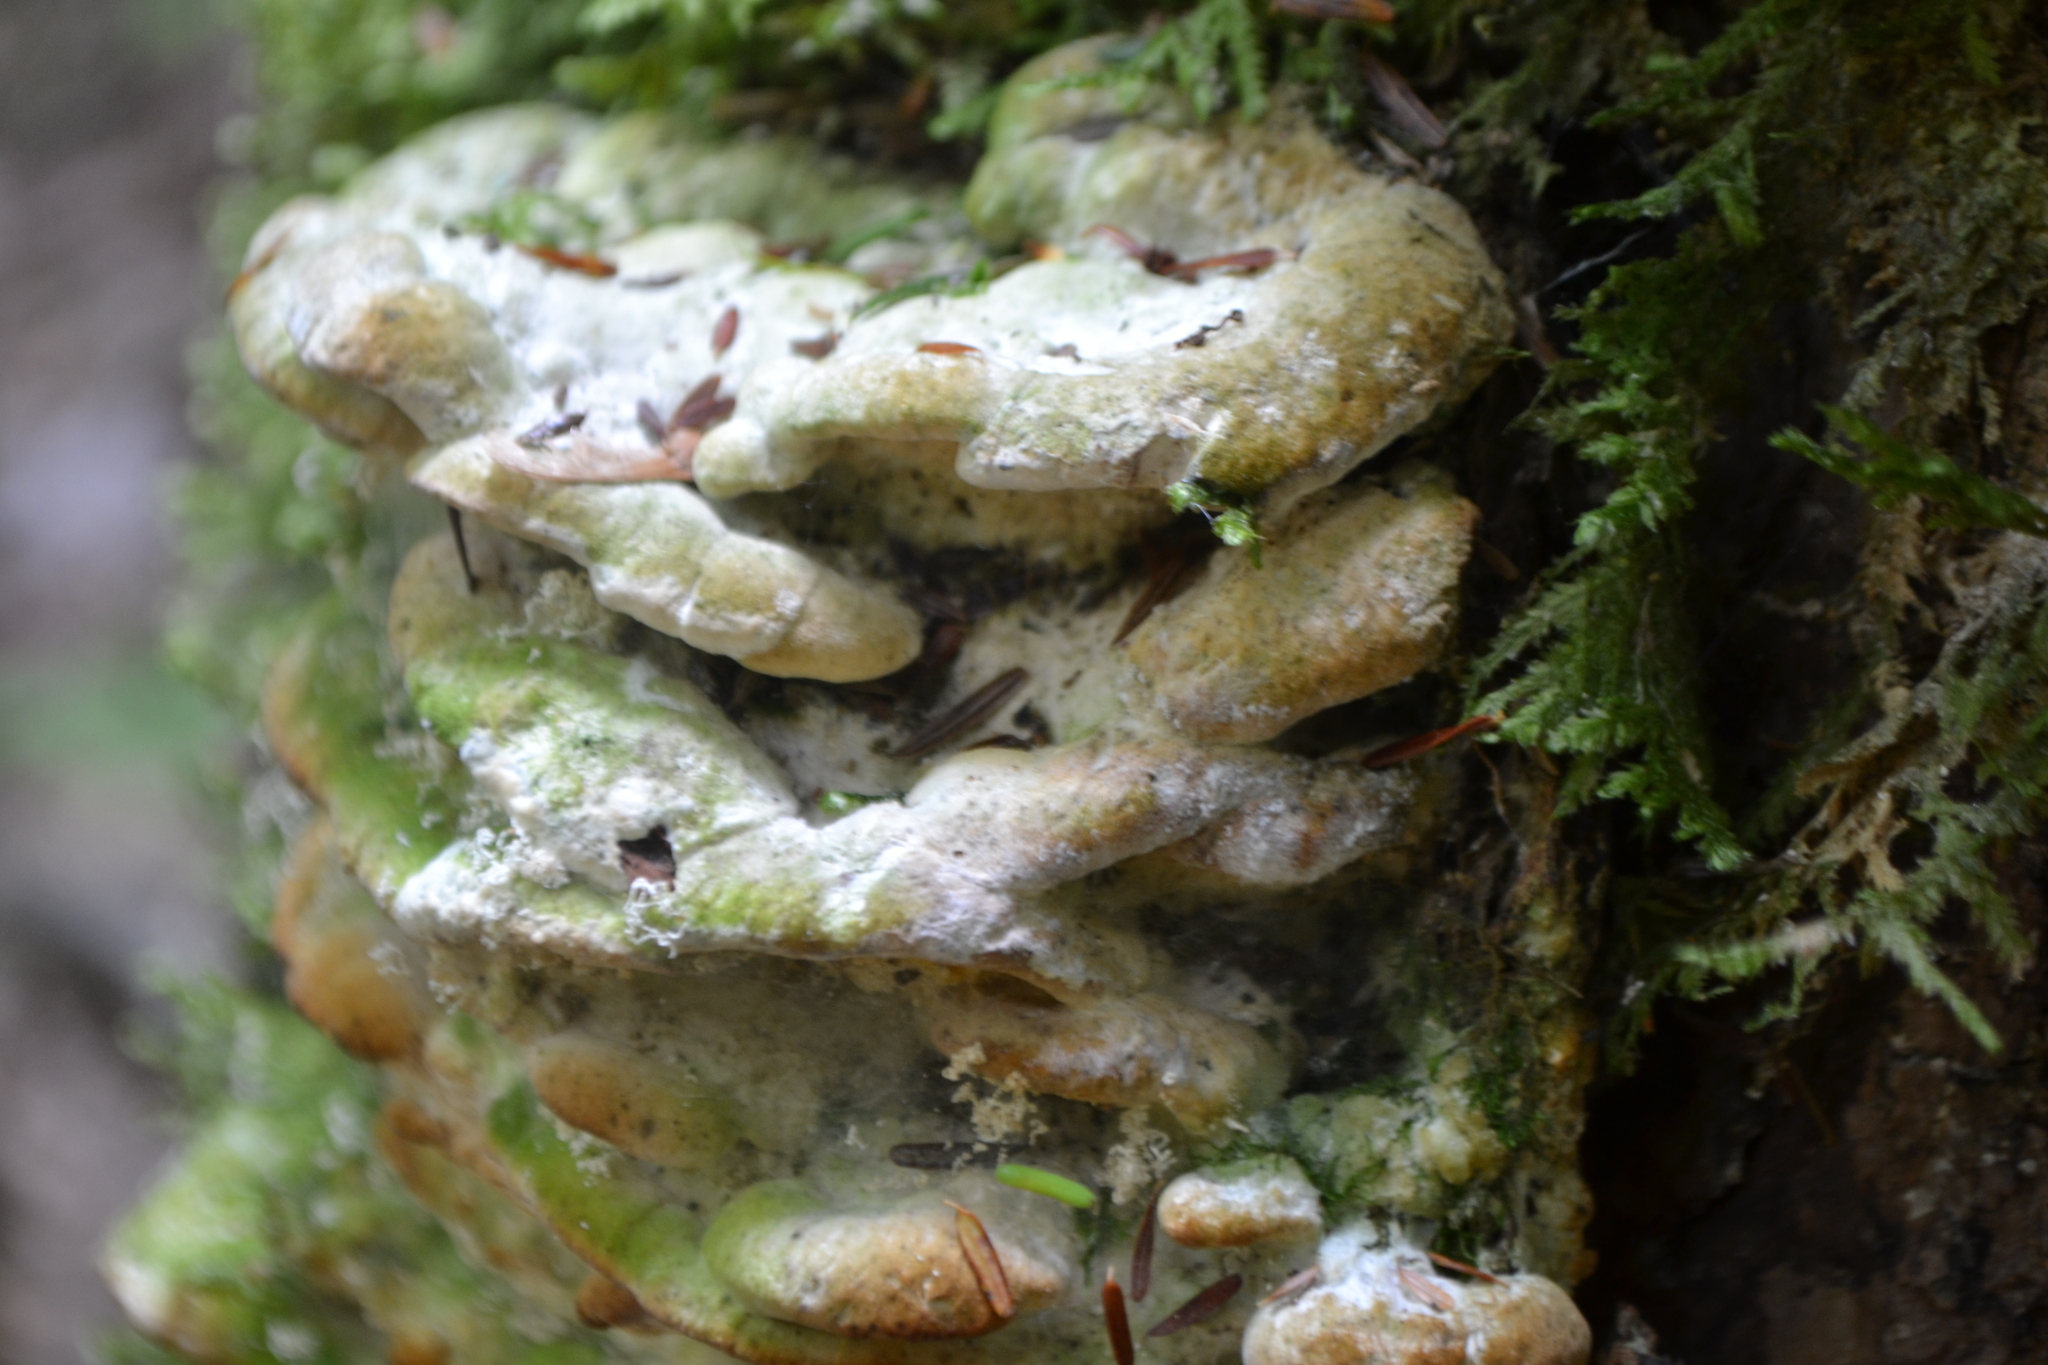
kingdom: Fungi
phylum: Basidiomycota
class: Agaricomycetes
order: Hymenochaetales
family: Oxyporaceae
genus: Oxyporus
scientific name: Oxyporus populinus
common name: Poplar bracket
